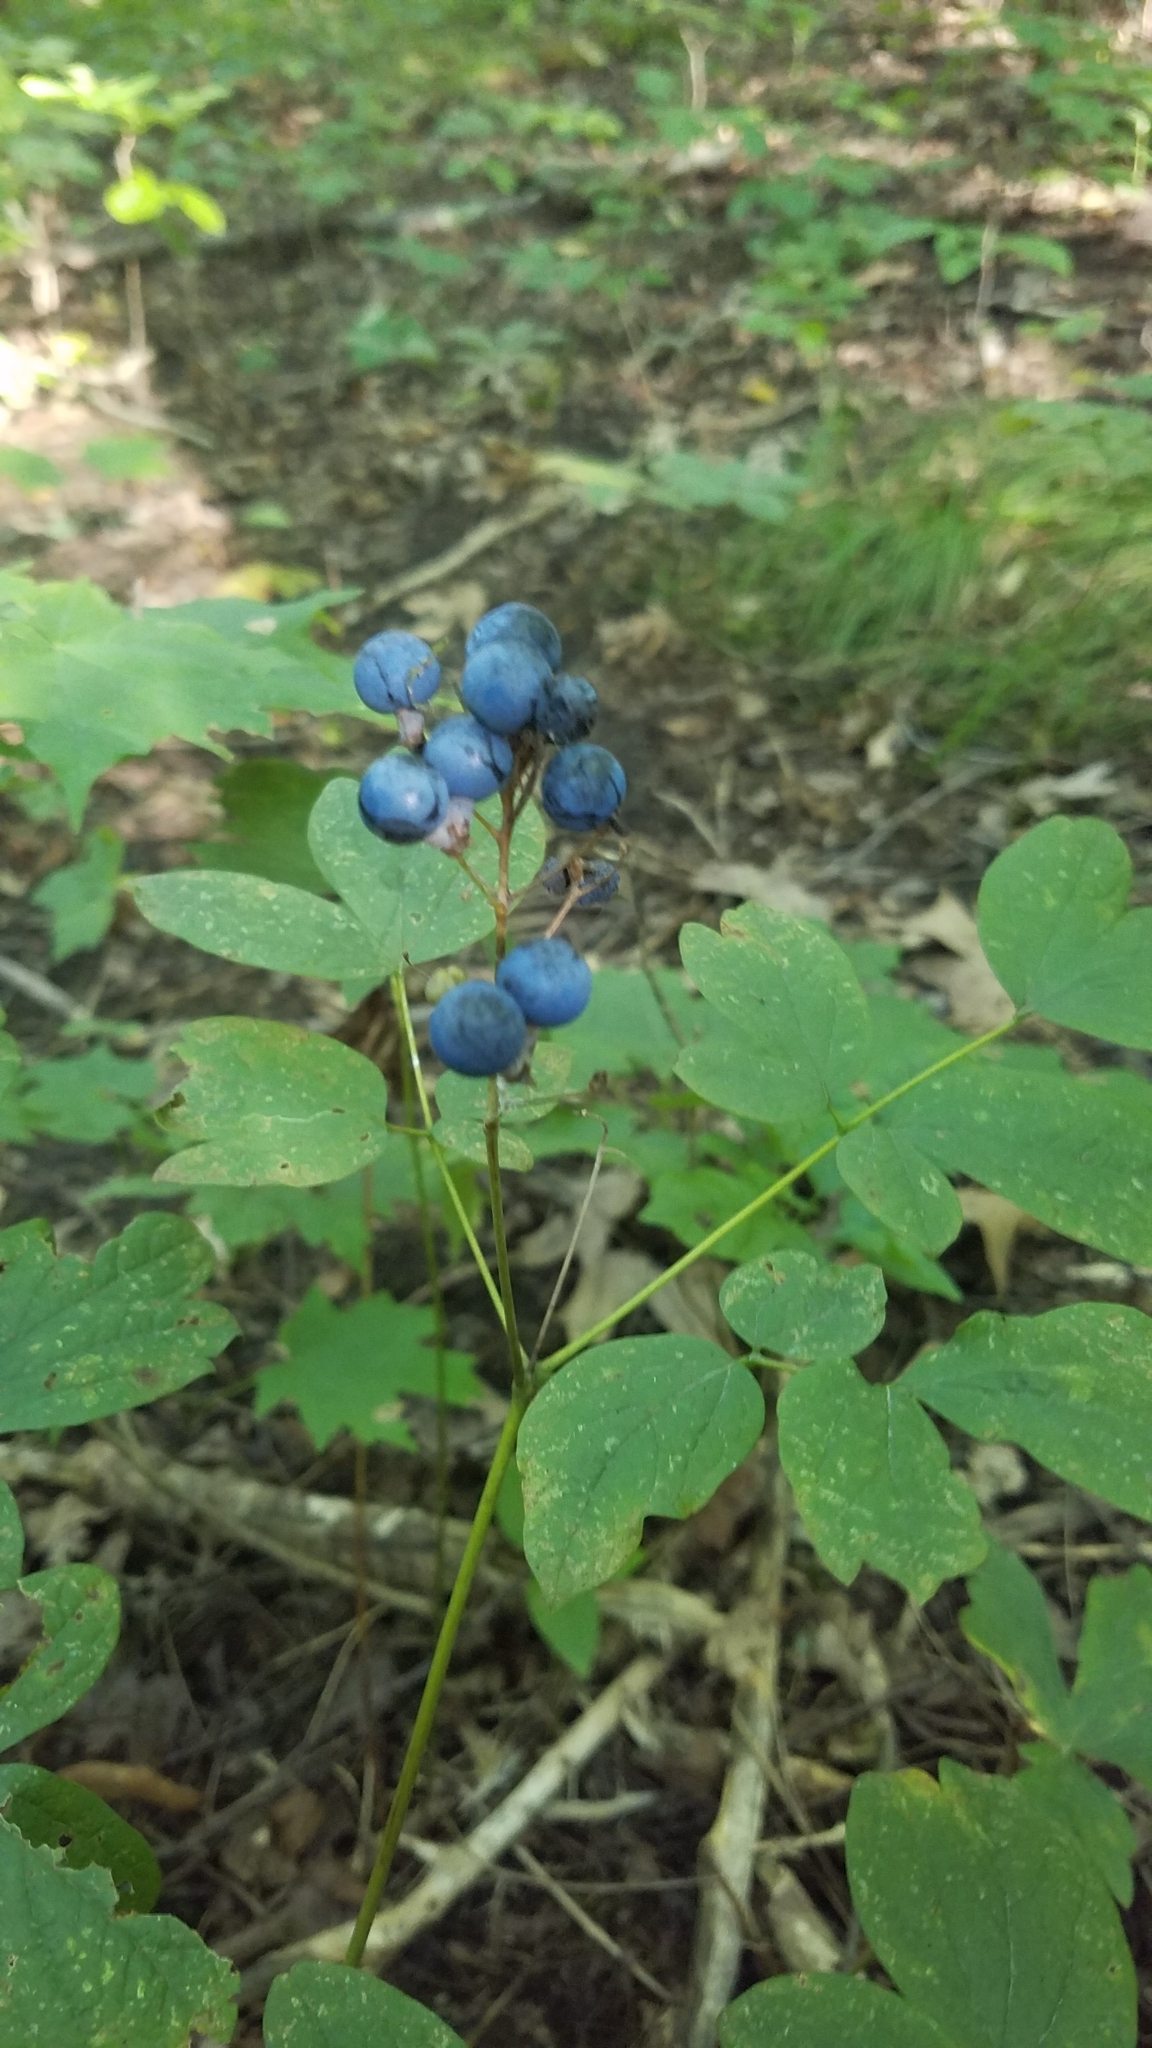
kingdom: Plantae
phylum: Tracheophyta
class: Magnoliopsida
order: Ranunculales
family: Berberidaceae
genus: Caulophyllum
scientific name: Caulophyllum thalictroides
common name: Blue cohosh
